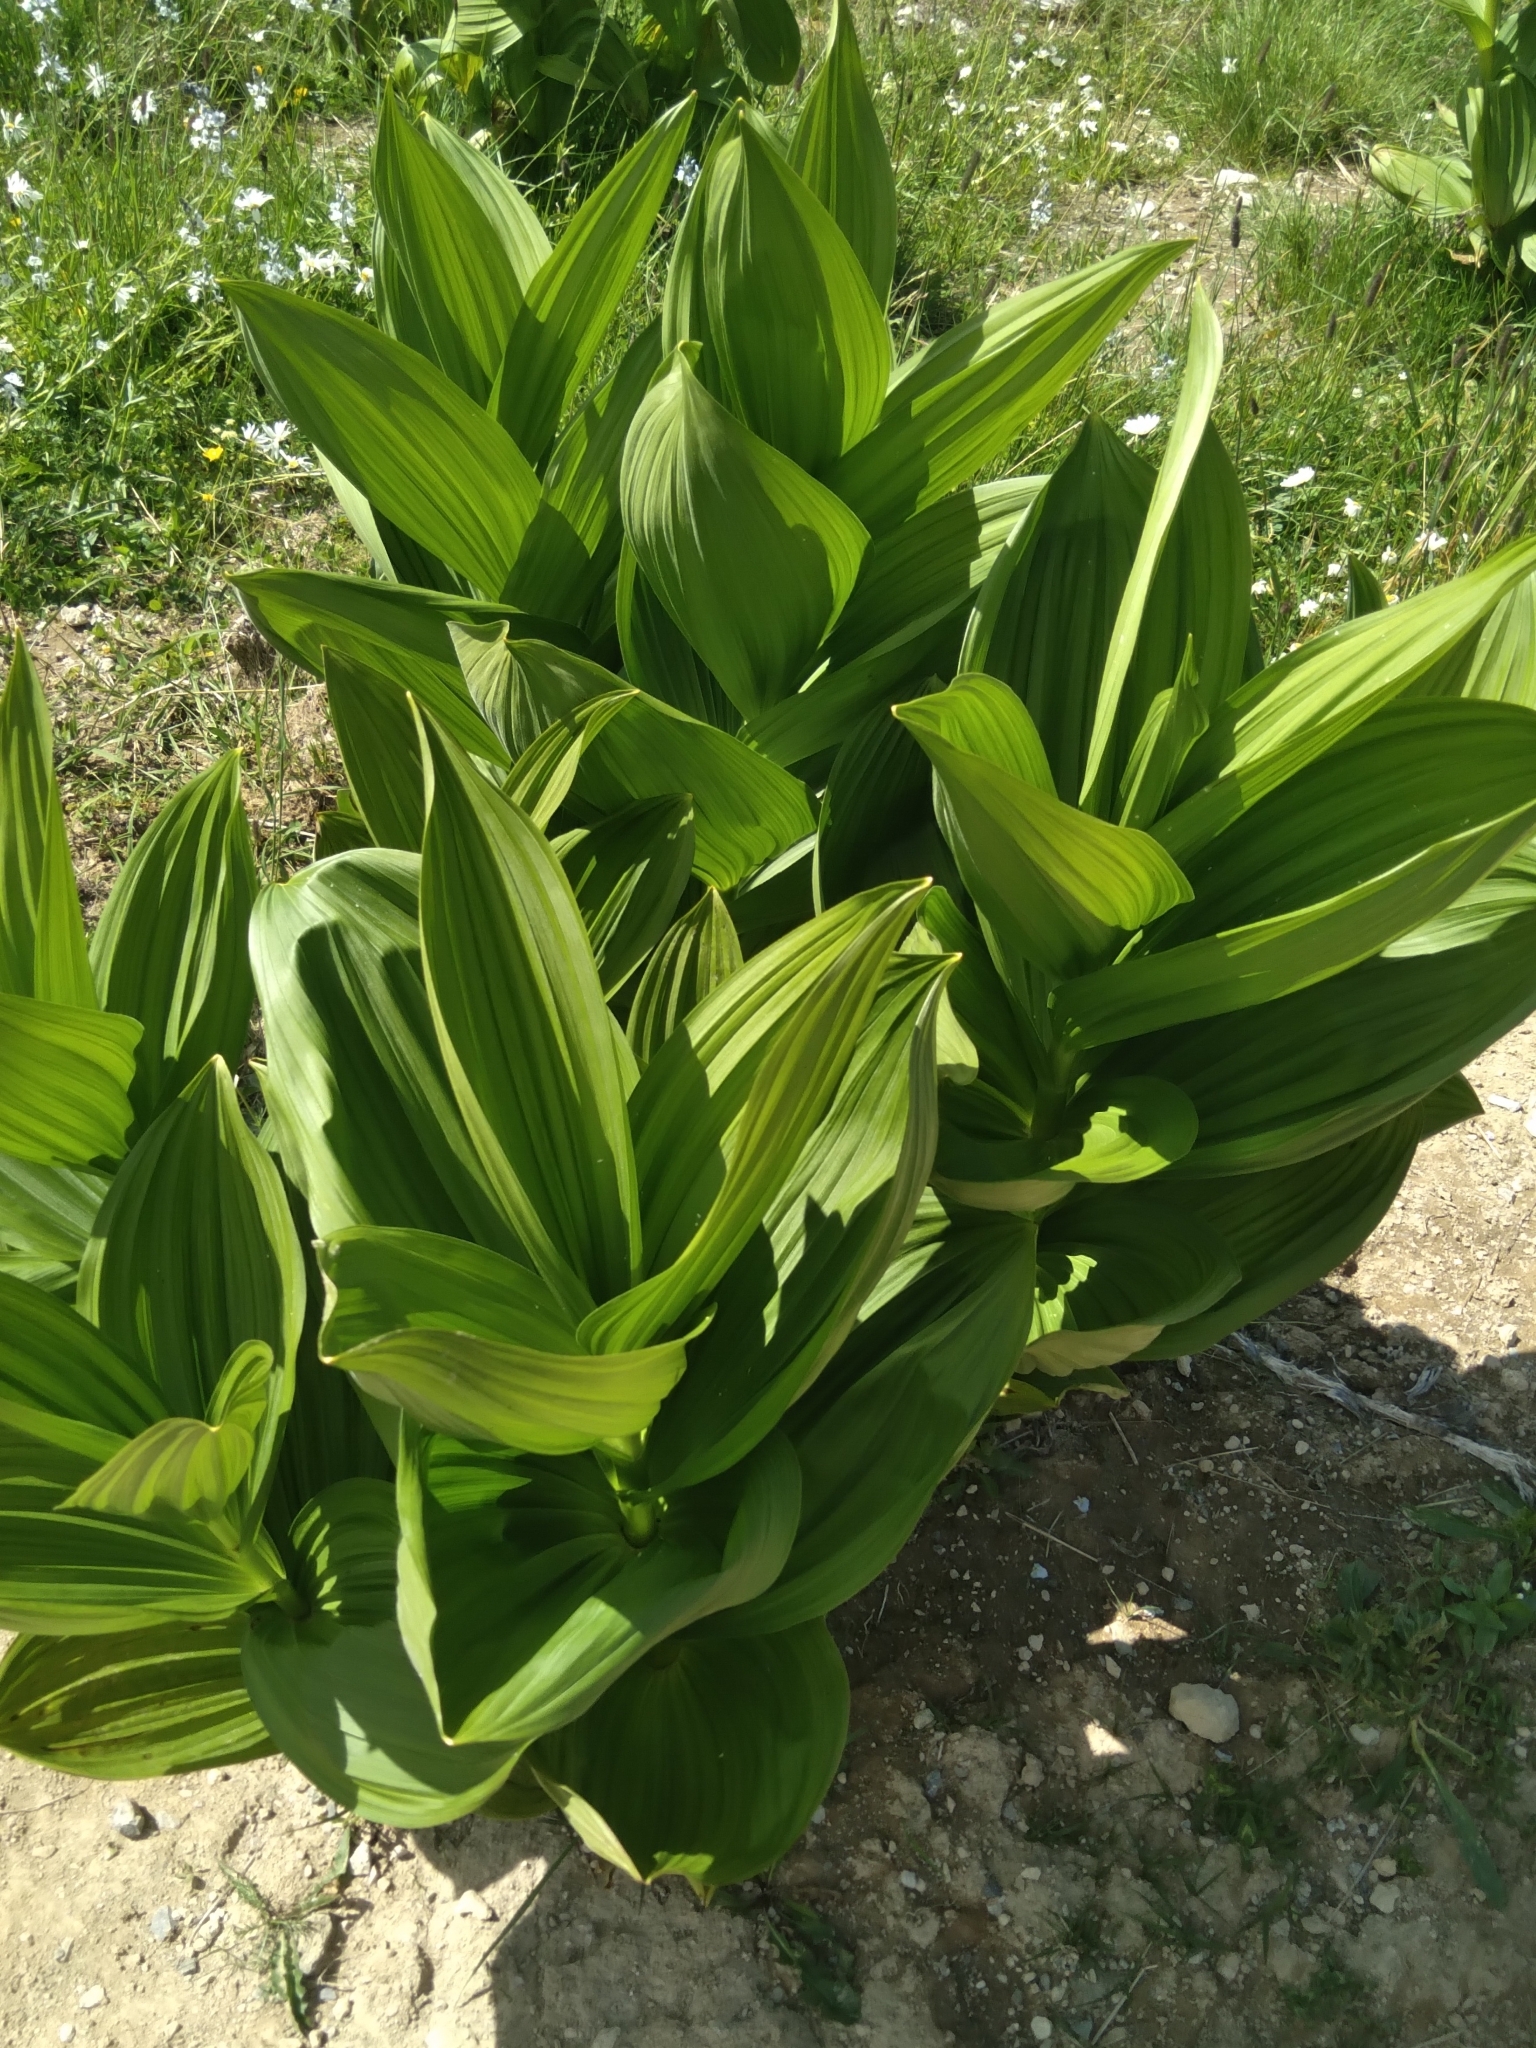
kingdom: Plantae
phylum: Tracheophyta
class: Liliopsida
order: Liliales
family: Melanthiaceae
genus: Veratrum
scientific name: Veratrum lobelianum
